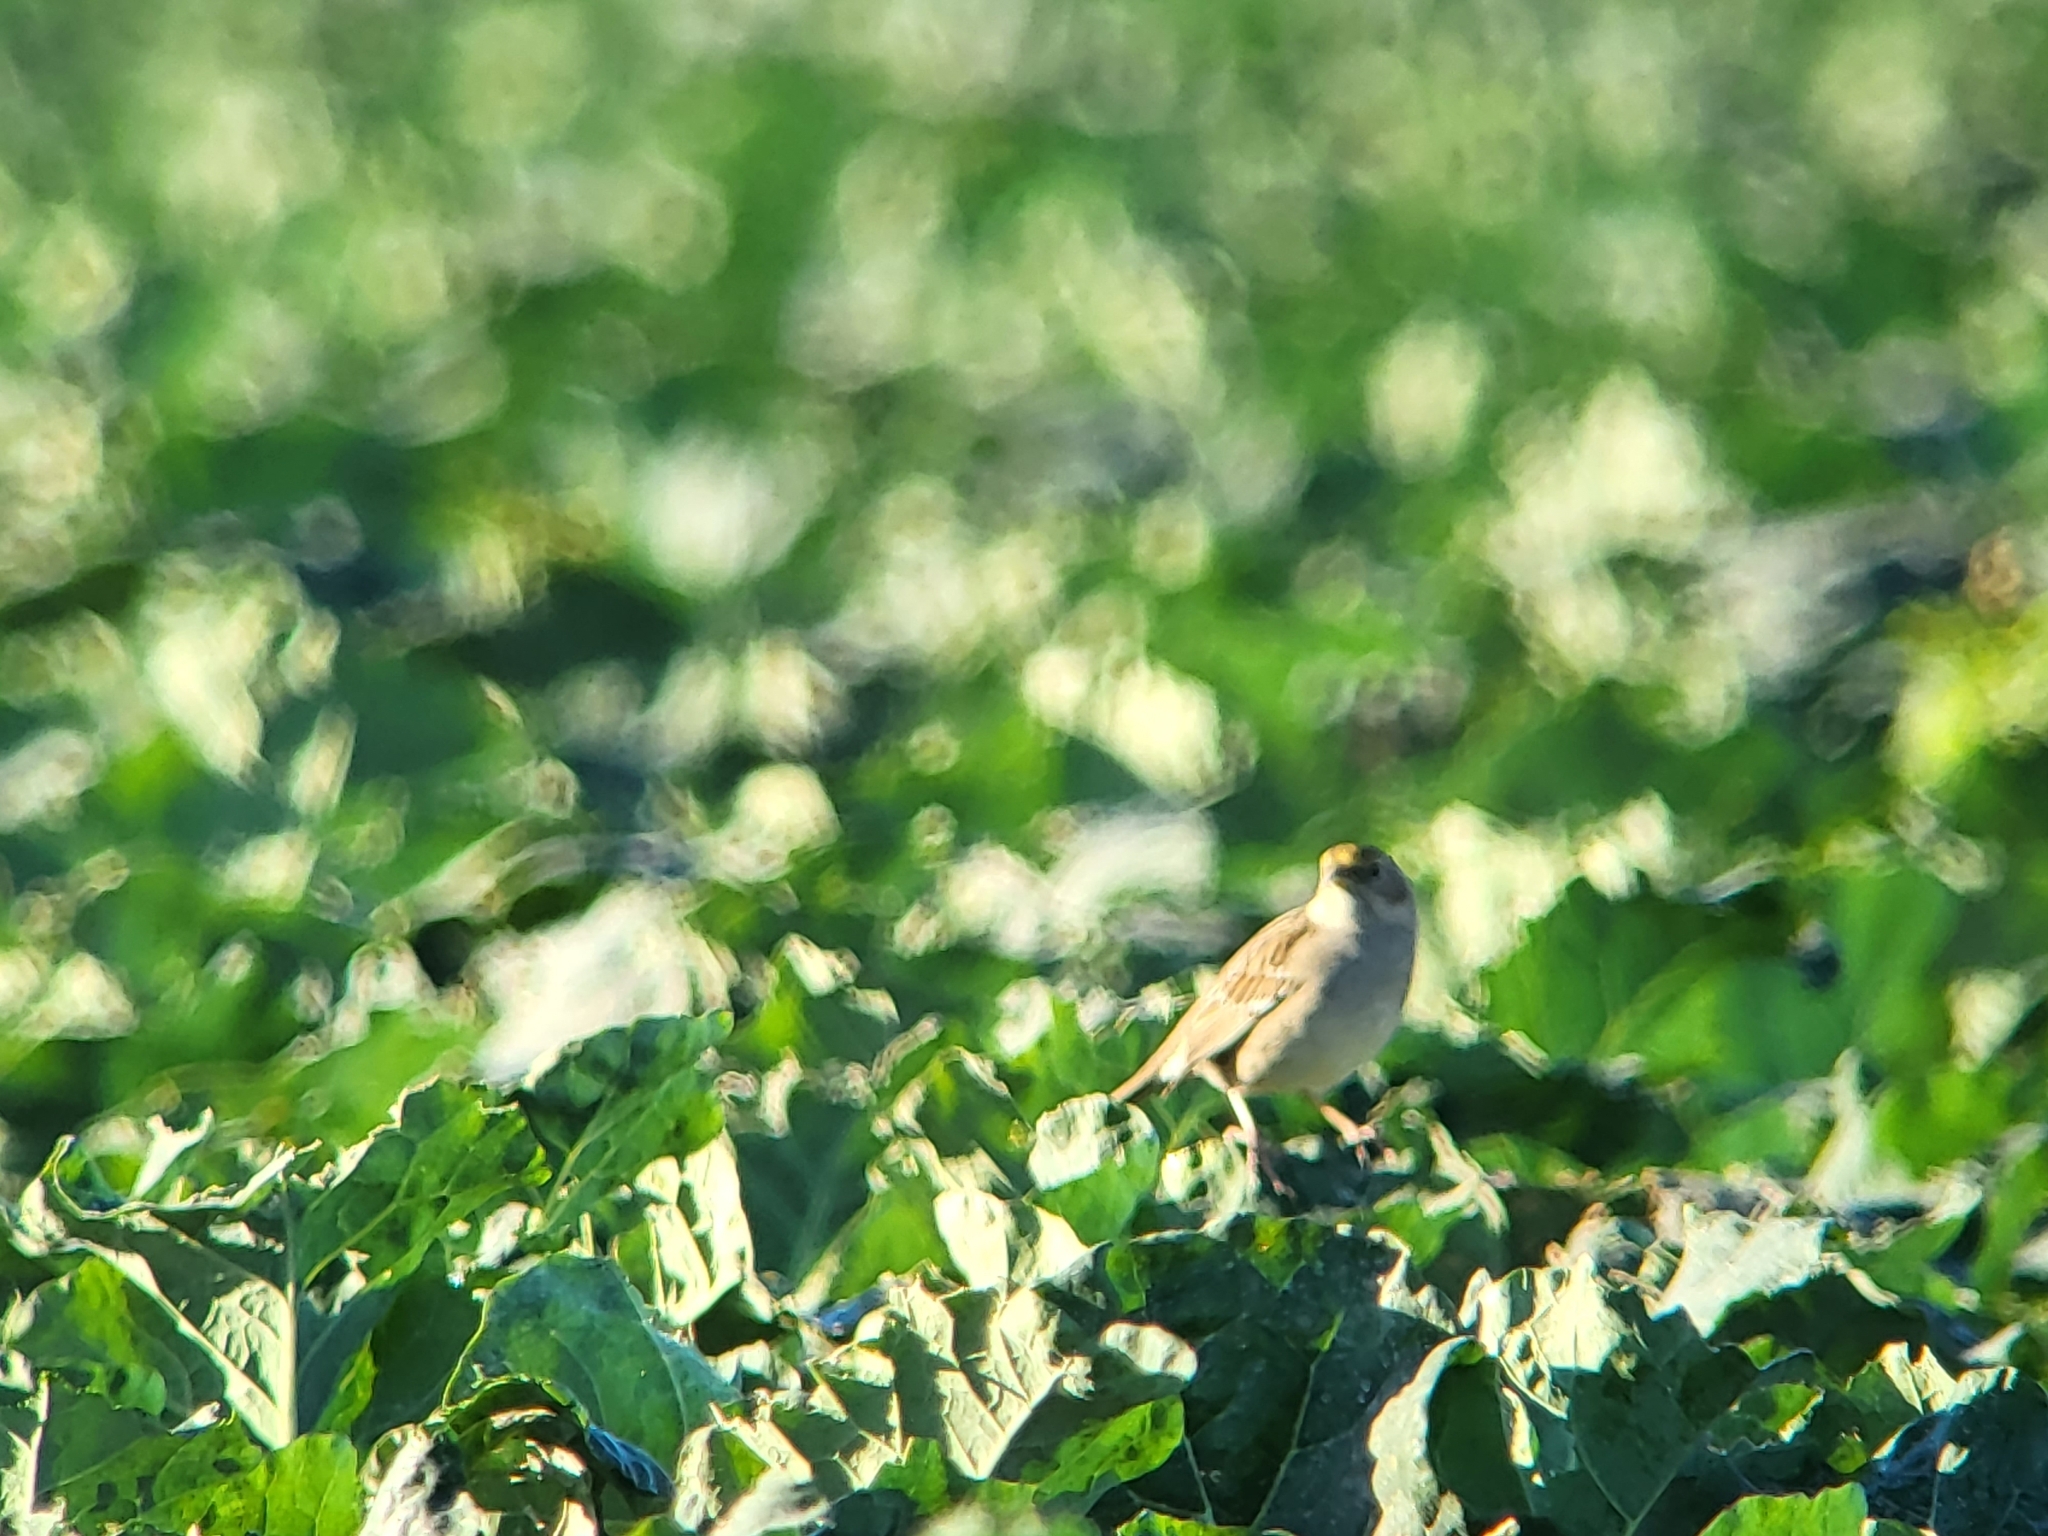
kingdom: Animalia
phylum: Chordata
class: Aves
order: Passeriformes
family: Passerellidae
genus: Zonotrichia
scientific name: Zonotrichia atricapilla
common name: Golden-crowned sparrow
